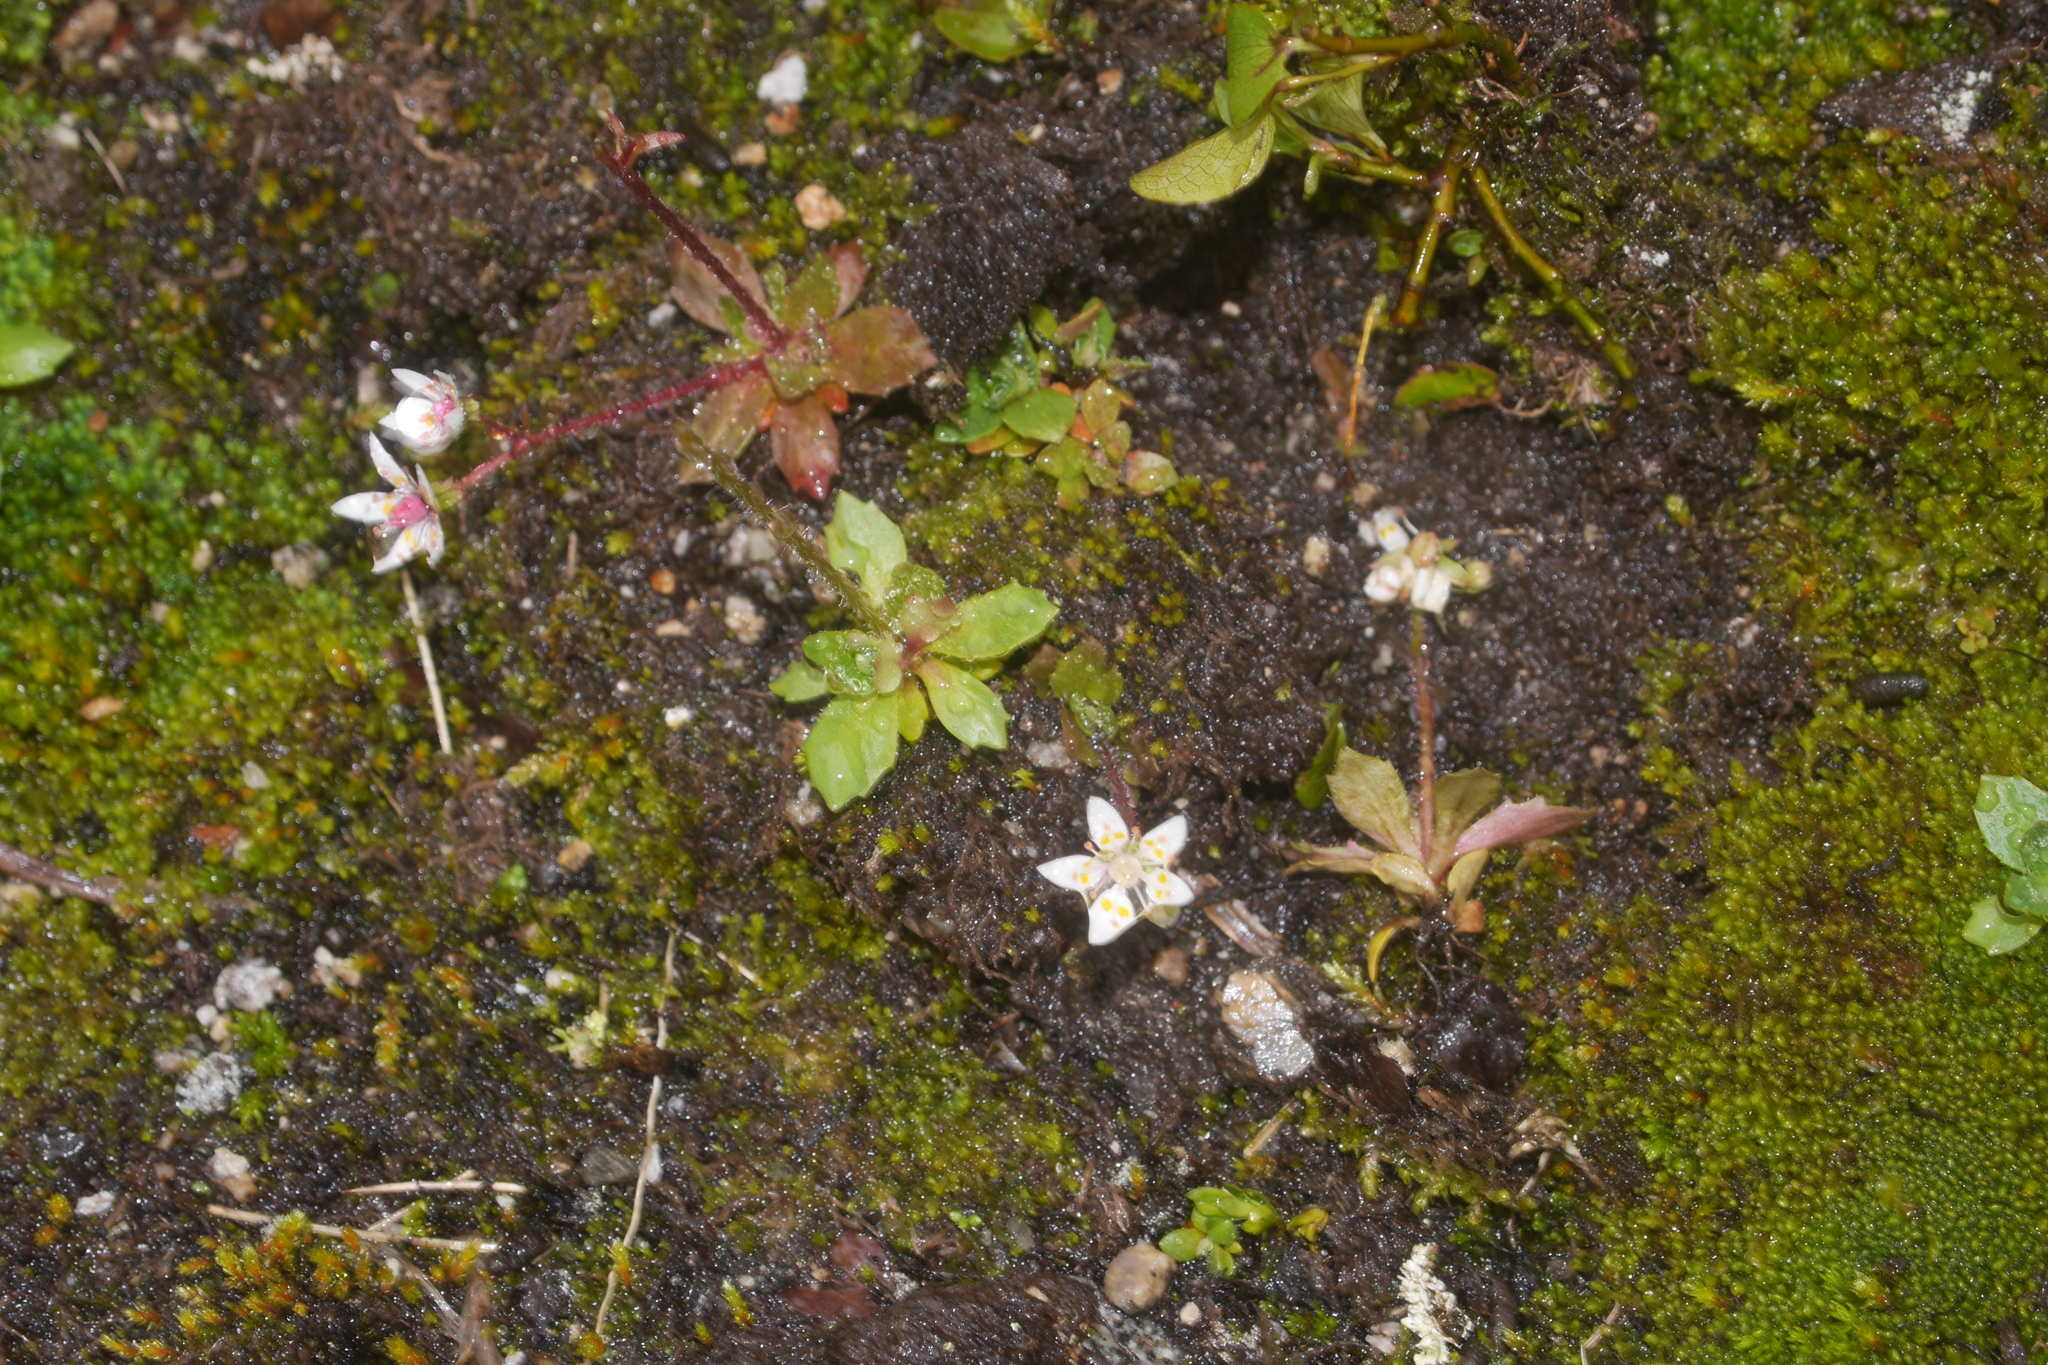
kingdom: Plantae
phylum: Tracheophyta
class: Magnoliopsida
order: Saxifragales
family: Saxifragaceae
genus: Micranthes
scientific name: Micranthes stellaris
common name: Starry saxifrage
